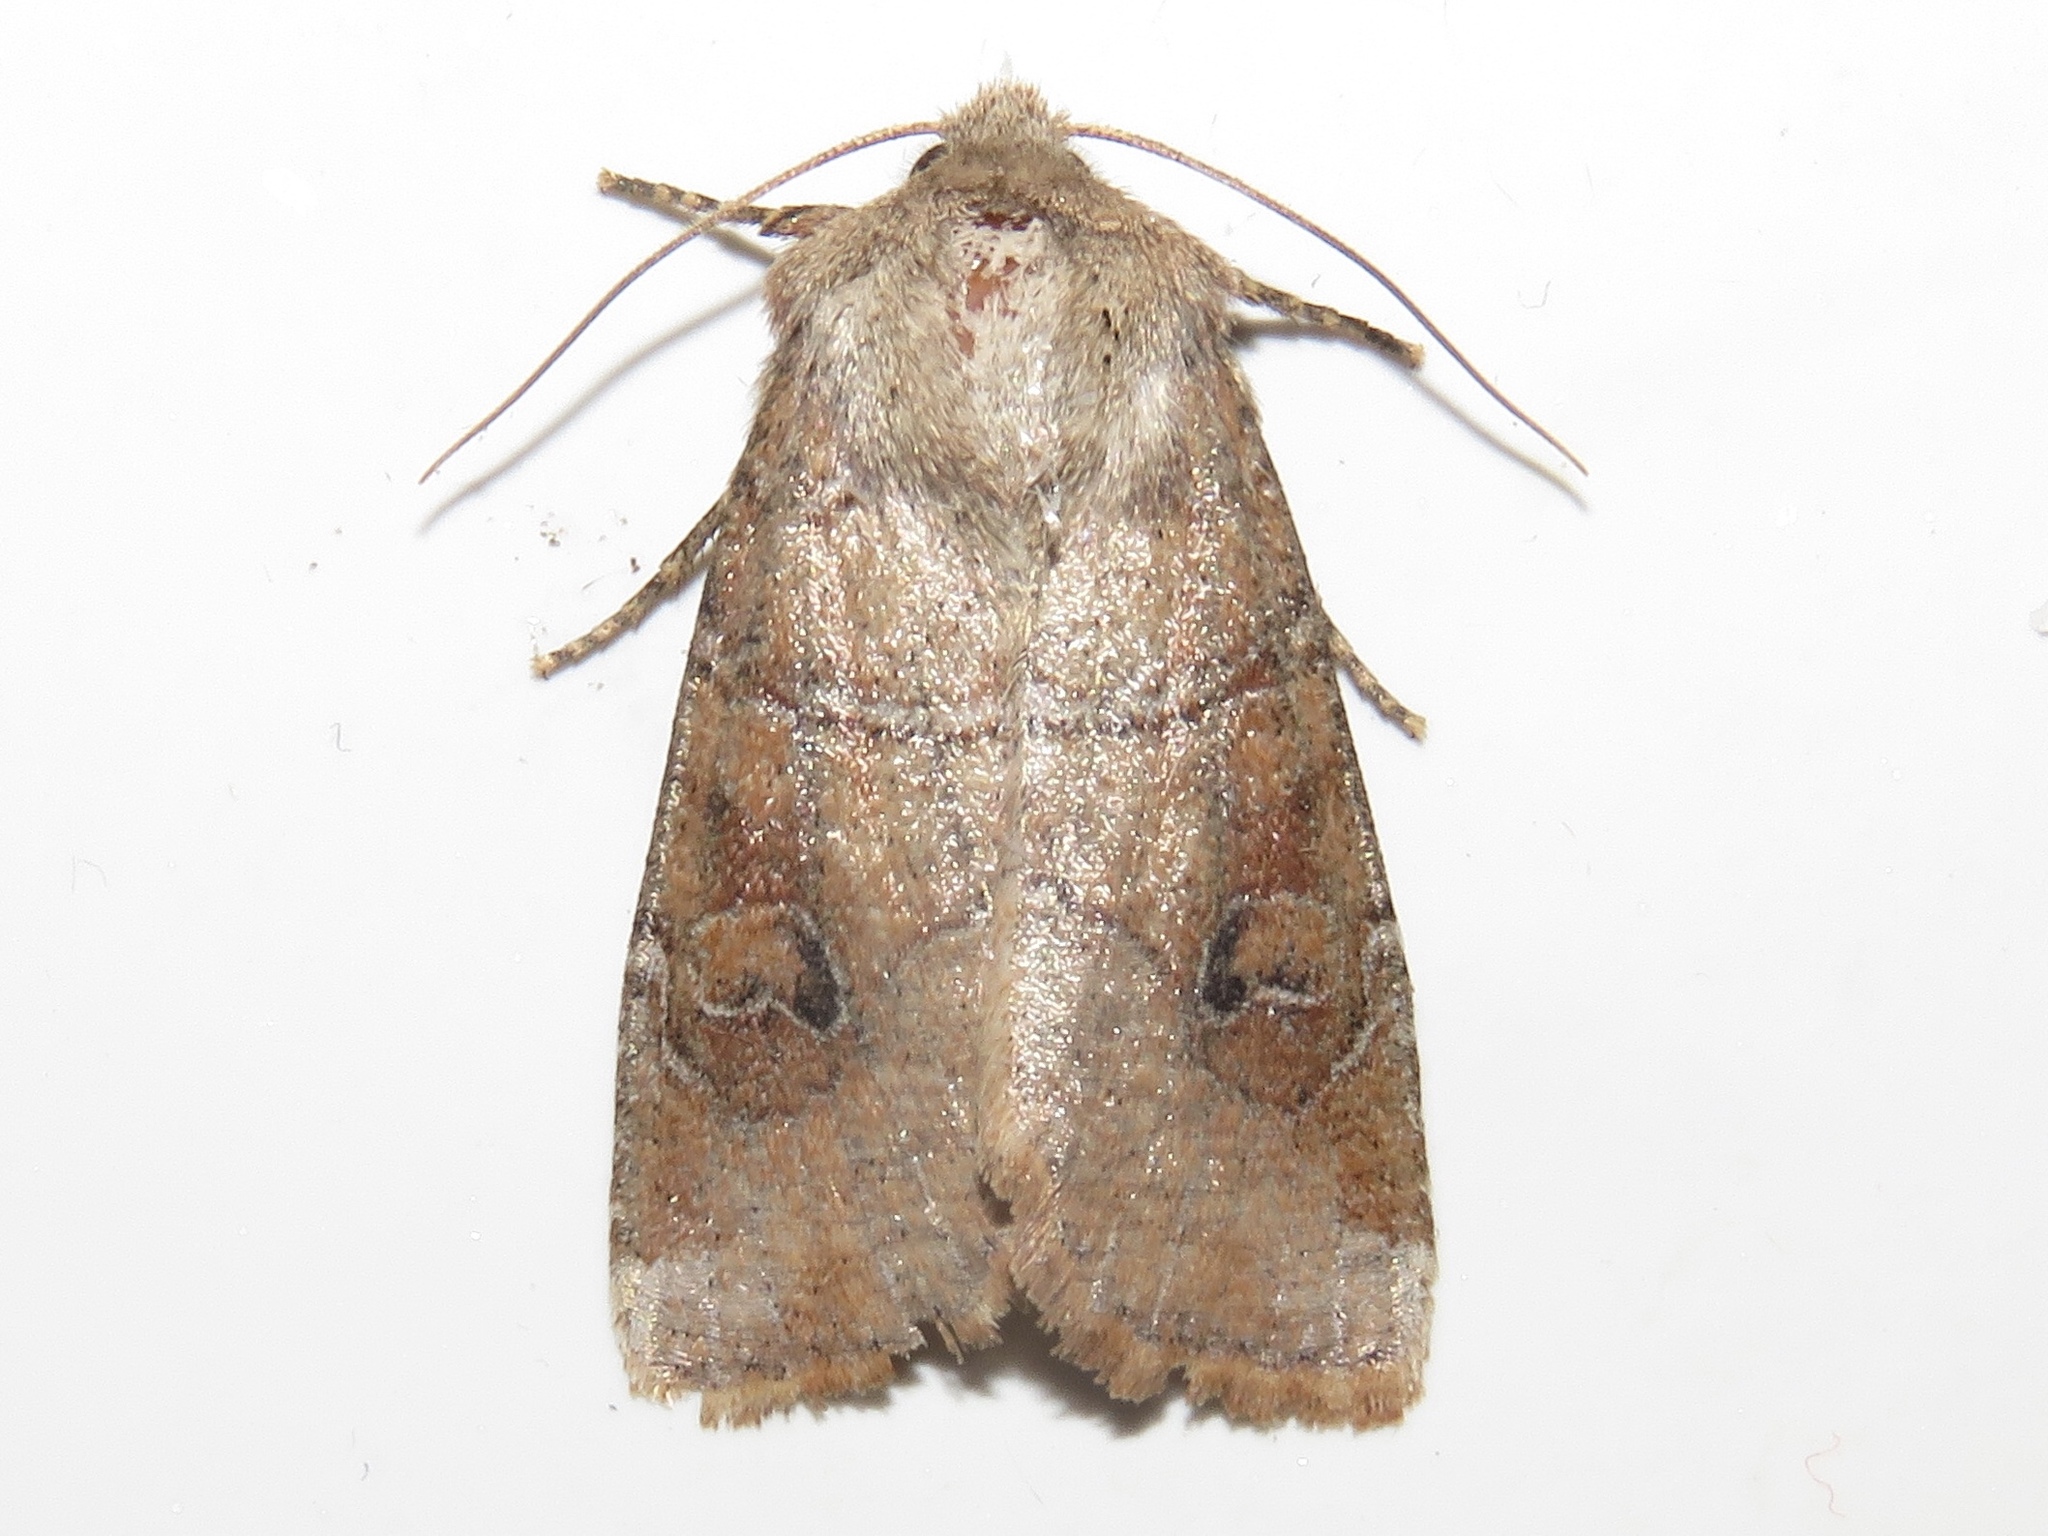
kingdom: Animalia
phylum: Arthropoda
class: Insecta
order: Lepidoptera
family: Noctuidae
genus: Crocigrapha
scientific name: Crocigrapha normani
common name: Norman's quaker
